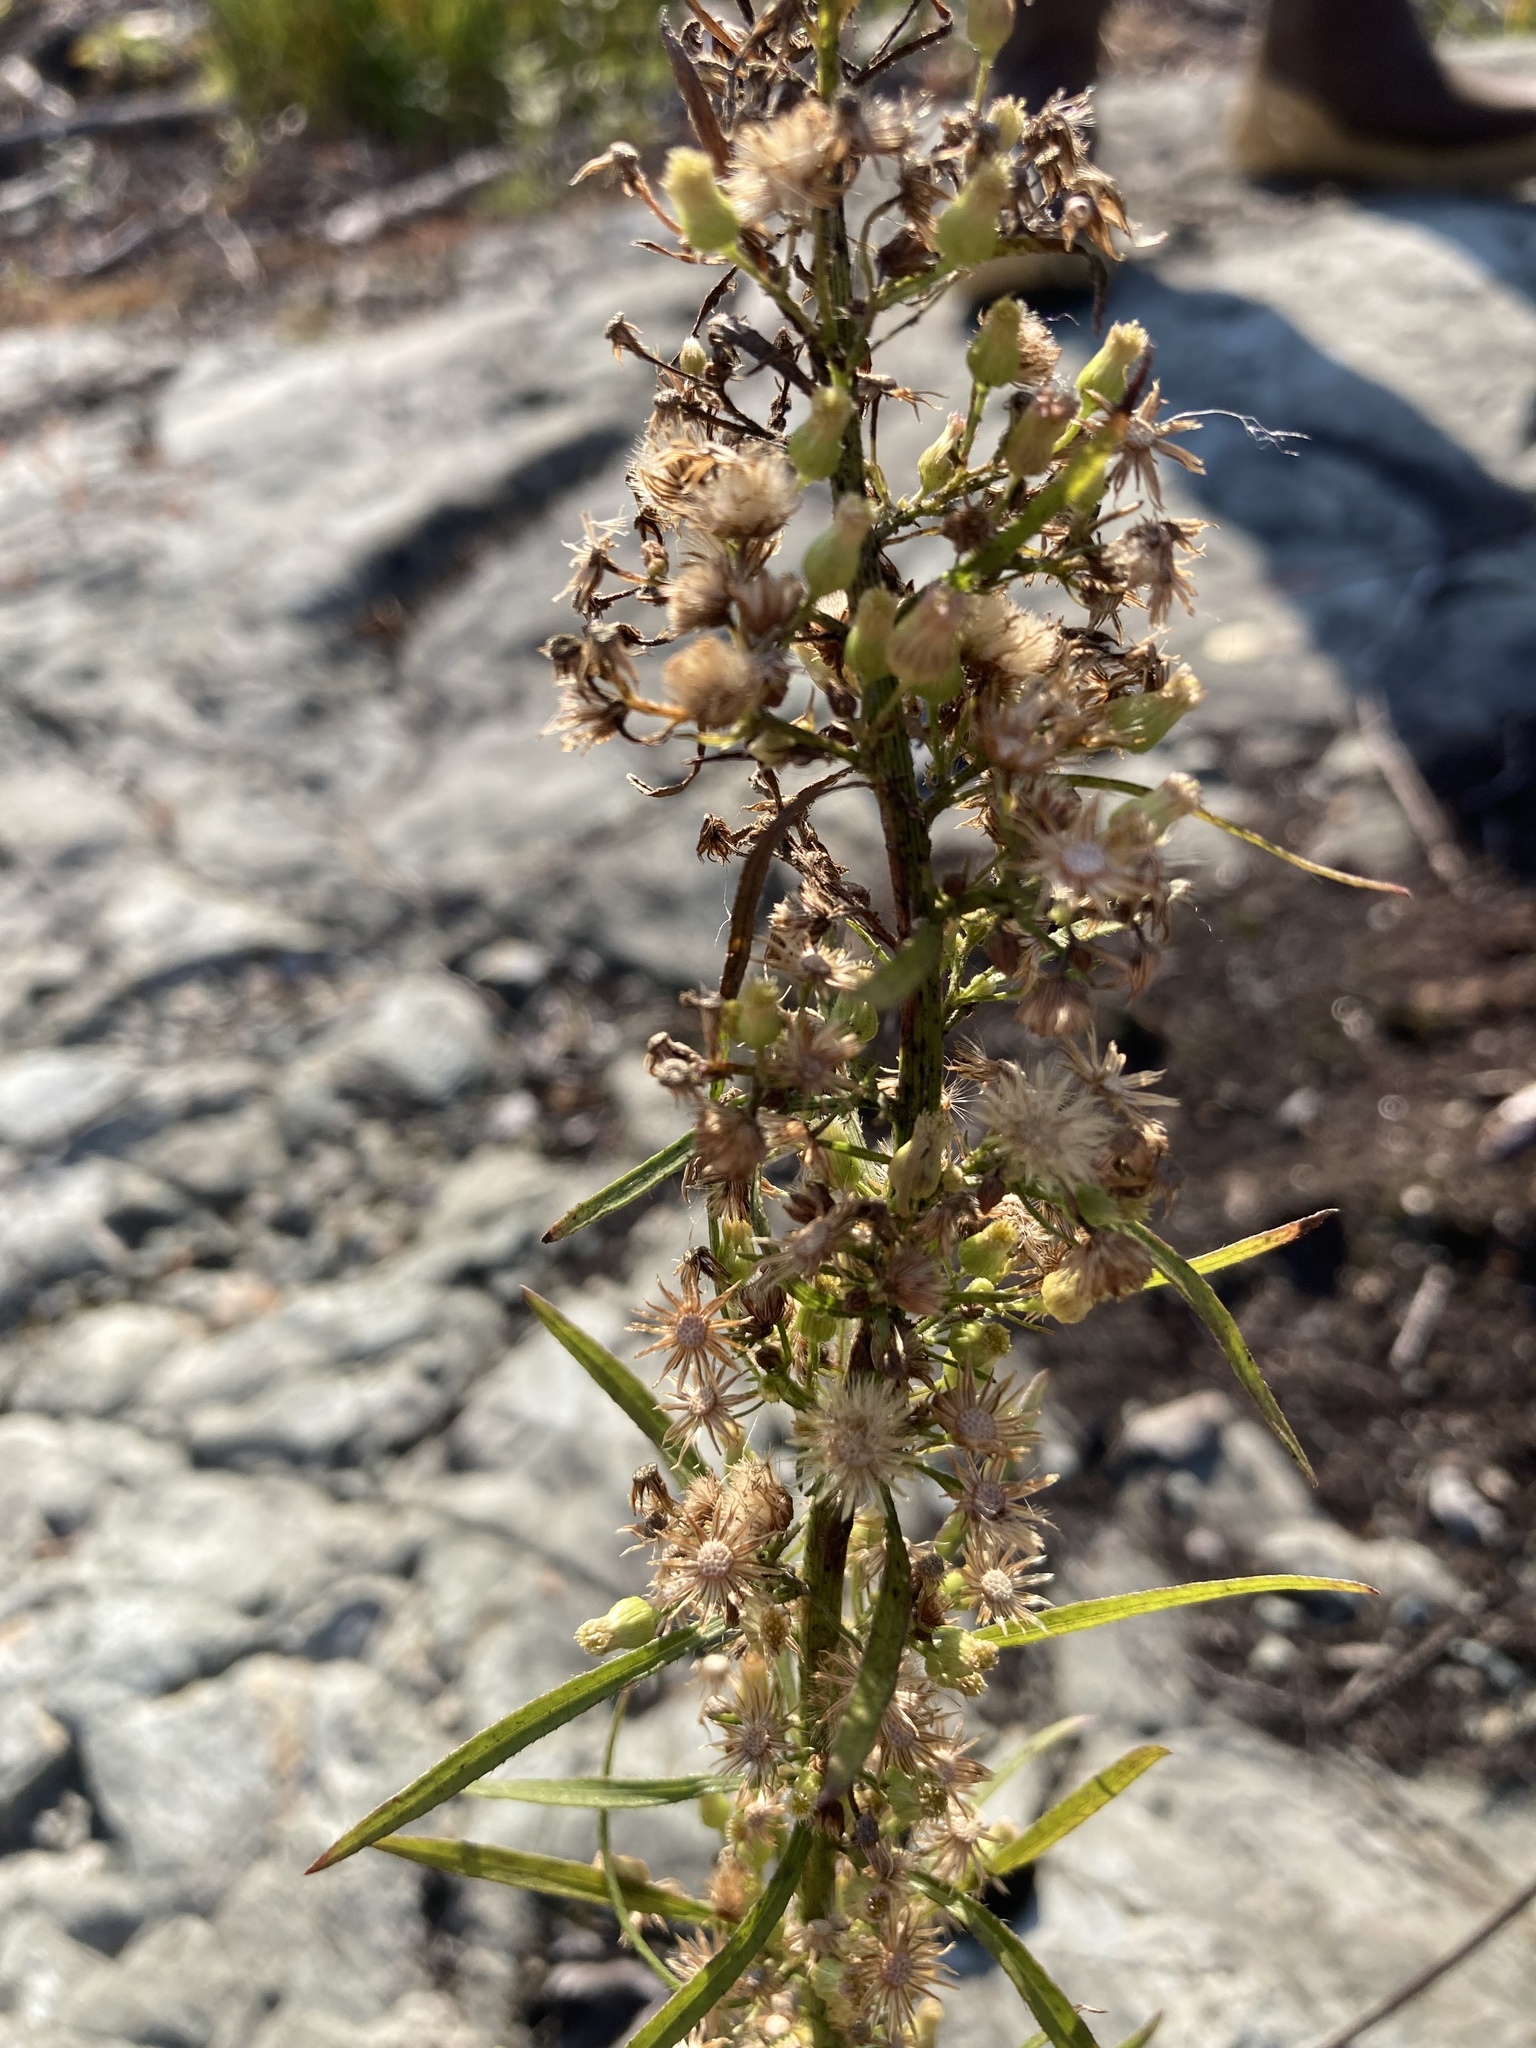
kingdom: Plantae
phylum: Tracheophyta
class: Magnoliopsida
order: Asterales
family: Asteraceae
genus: Erigeron
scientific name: Erigeron canadensis
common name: Canadian fleabane
